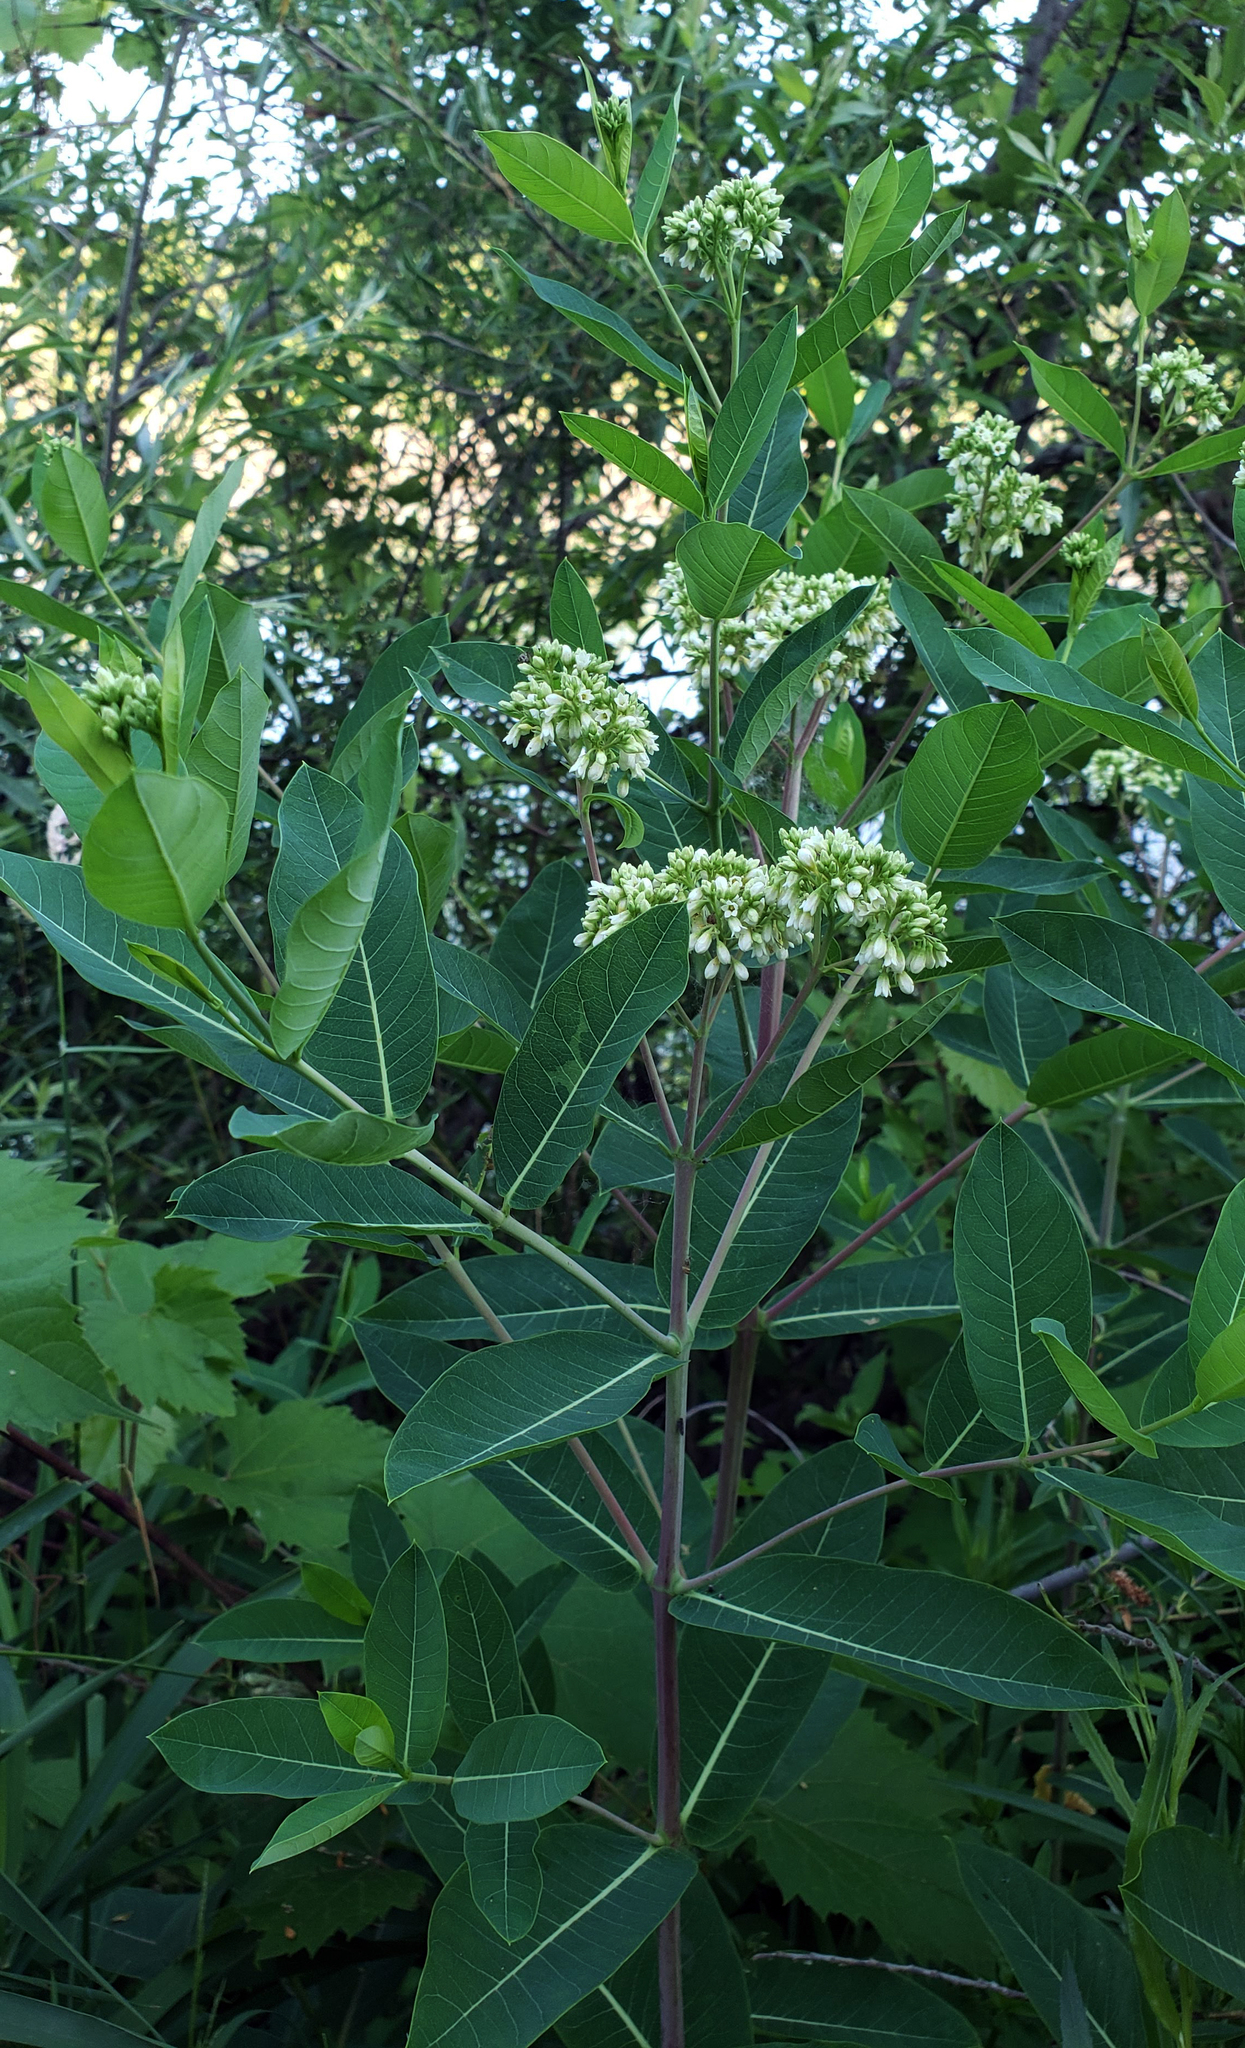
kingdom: Plantae
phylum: Tracheophyta
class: Magnoliopsida
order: Gentianales
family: Apocynaceae
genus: Apocynum
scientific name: Apocynum cannabinum
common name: Hemp dogbane
